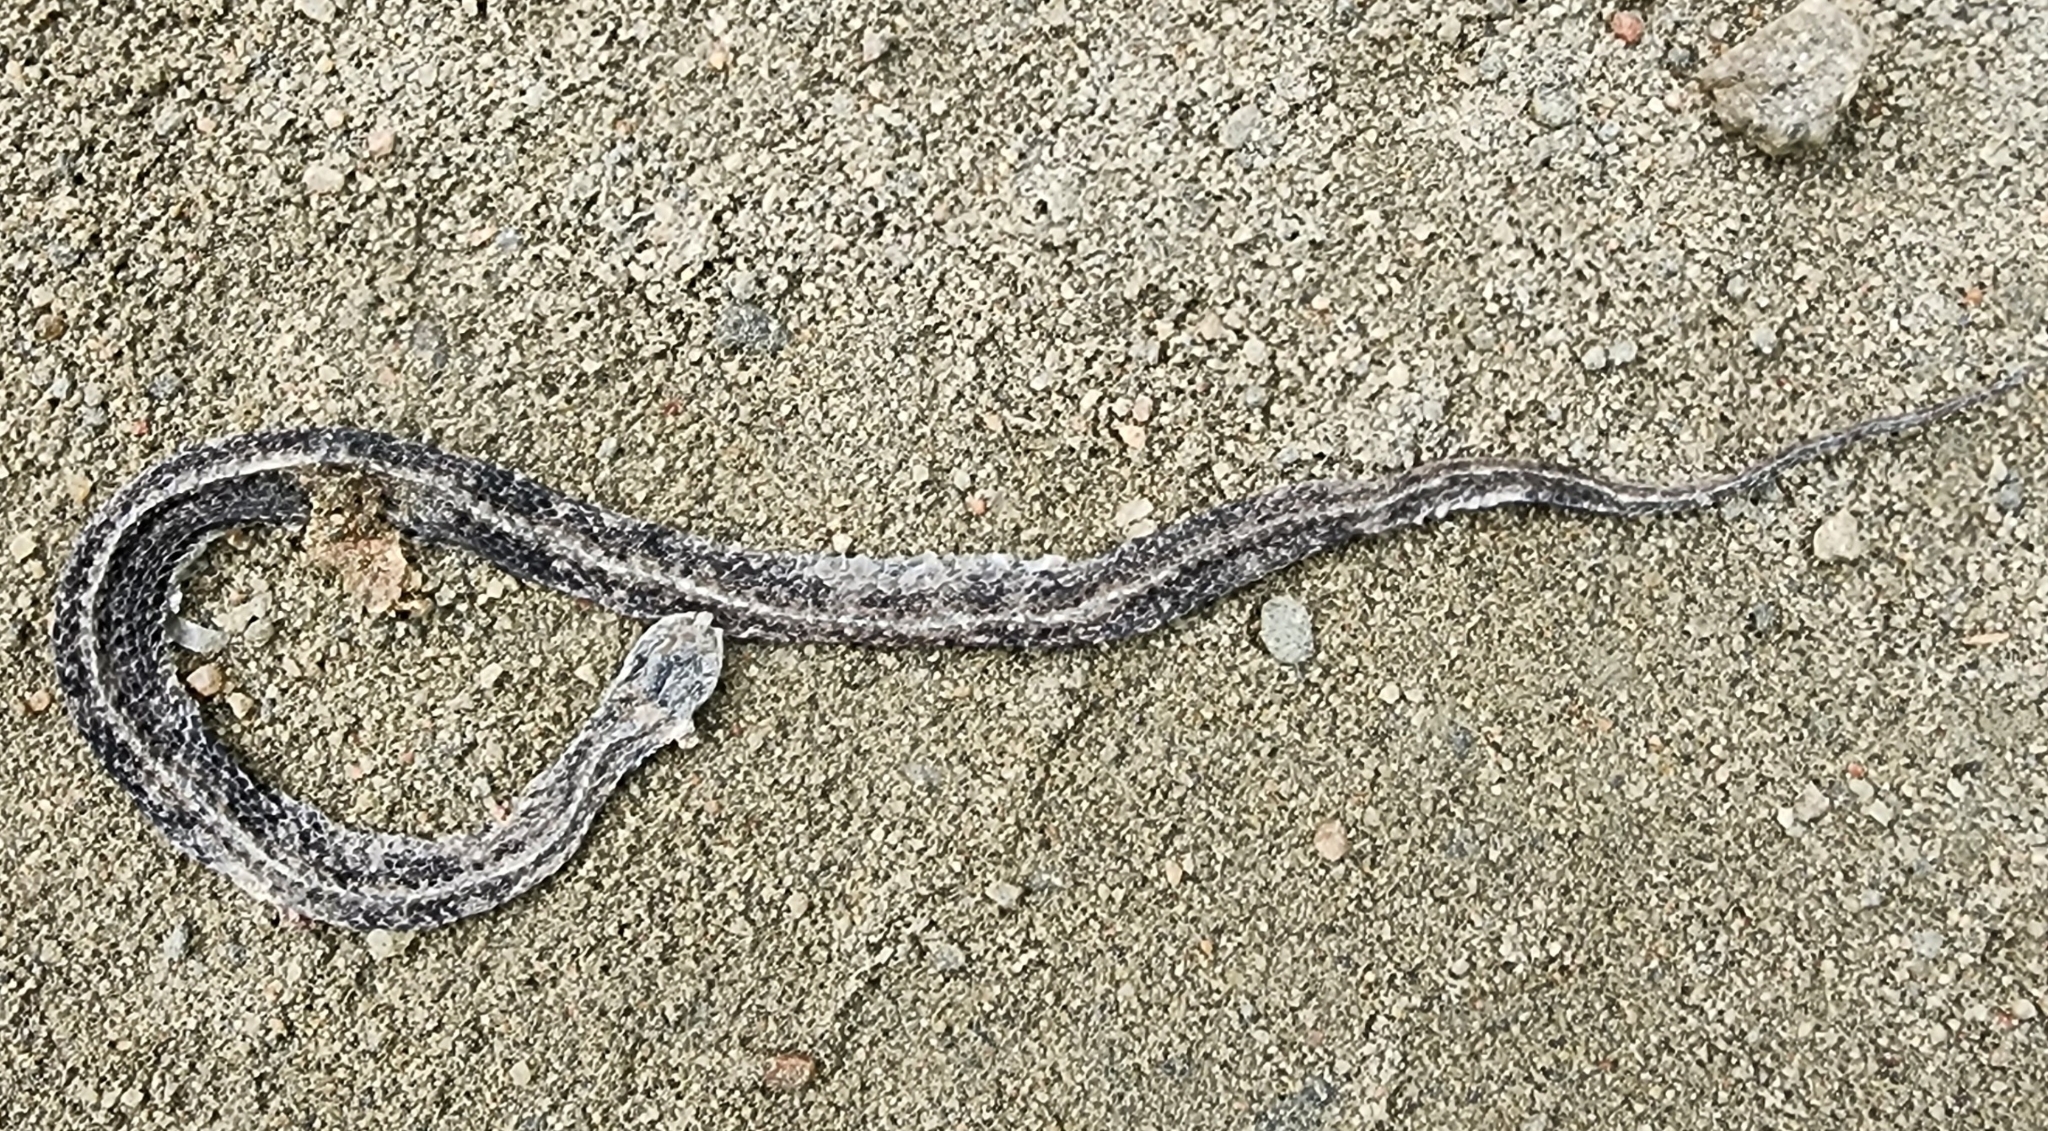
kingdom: Animalia
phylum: Chordata
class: Squamata
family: Colubridae
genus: Storeria
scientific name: Storeria occipitomaculata
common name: Redbelly snake
